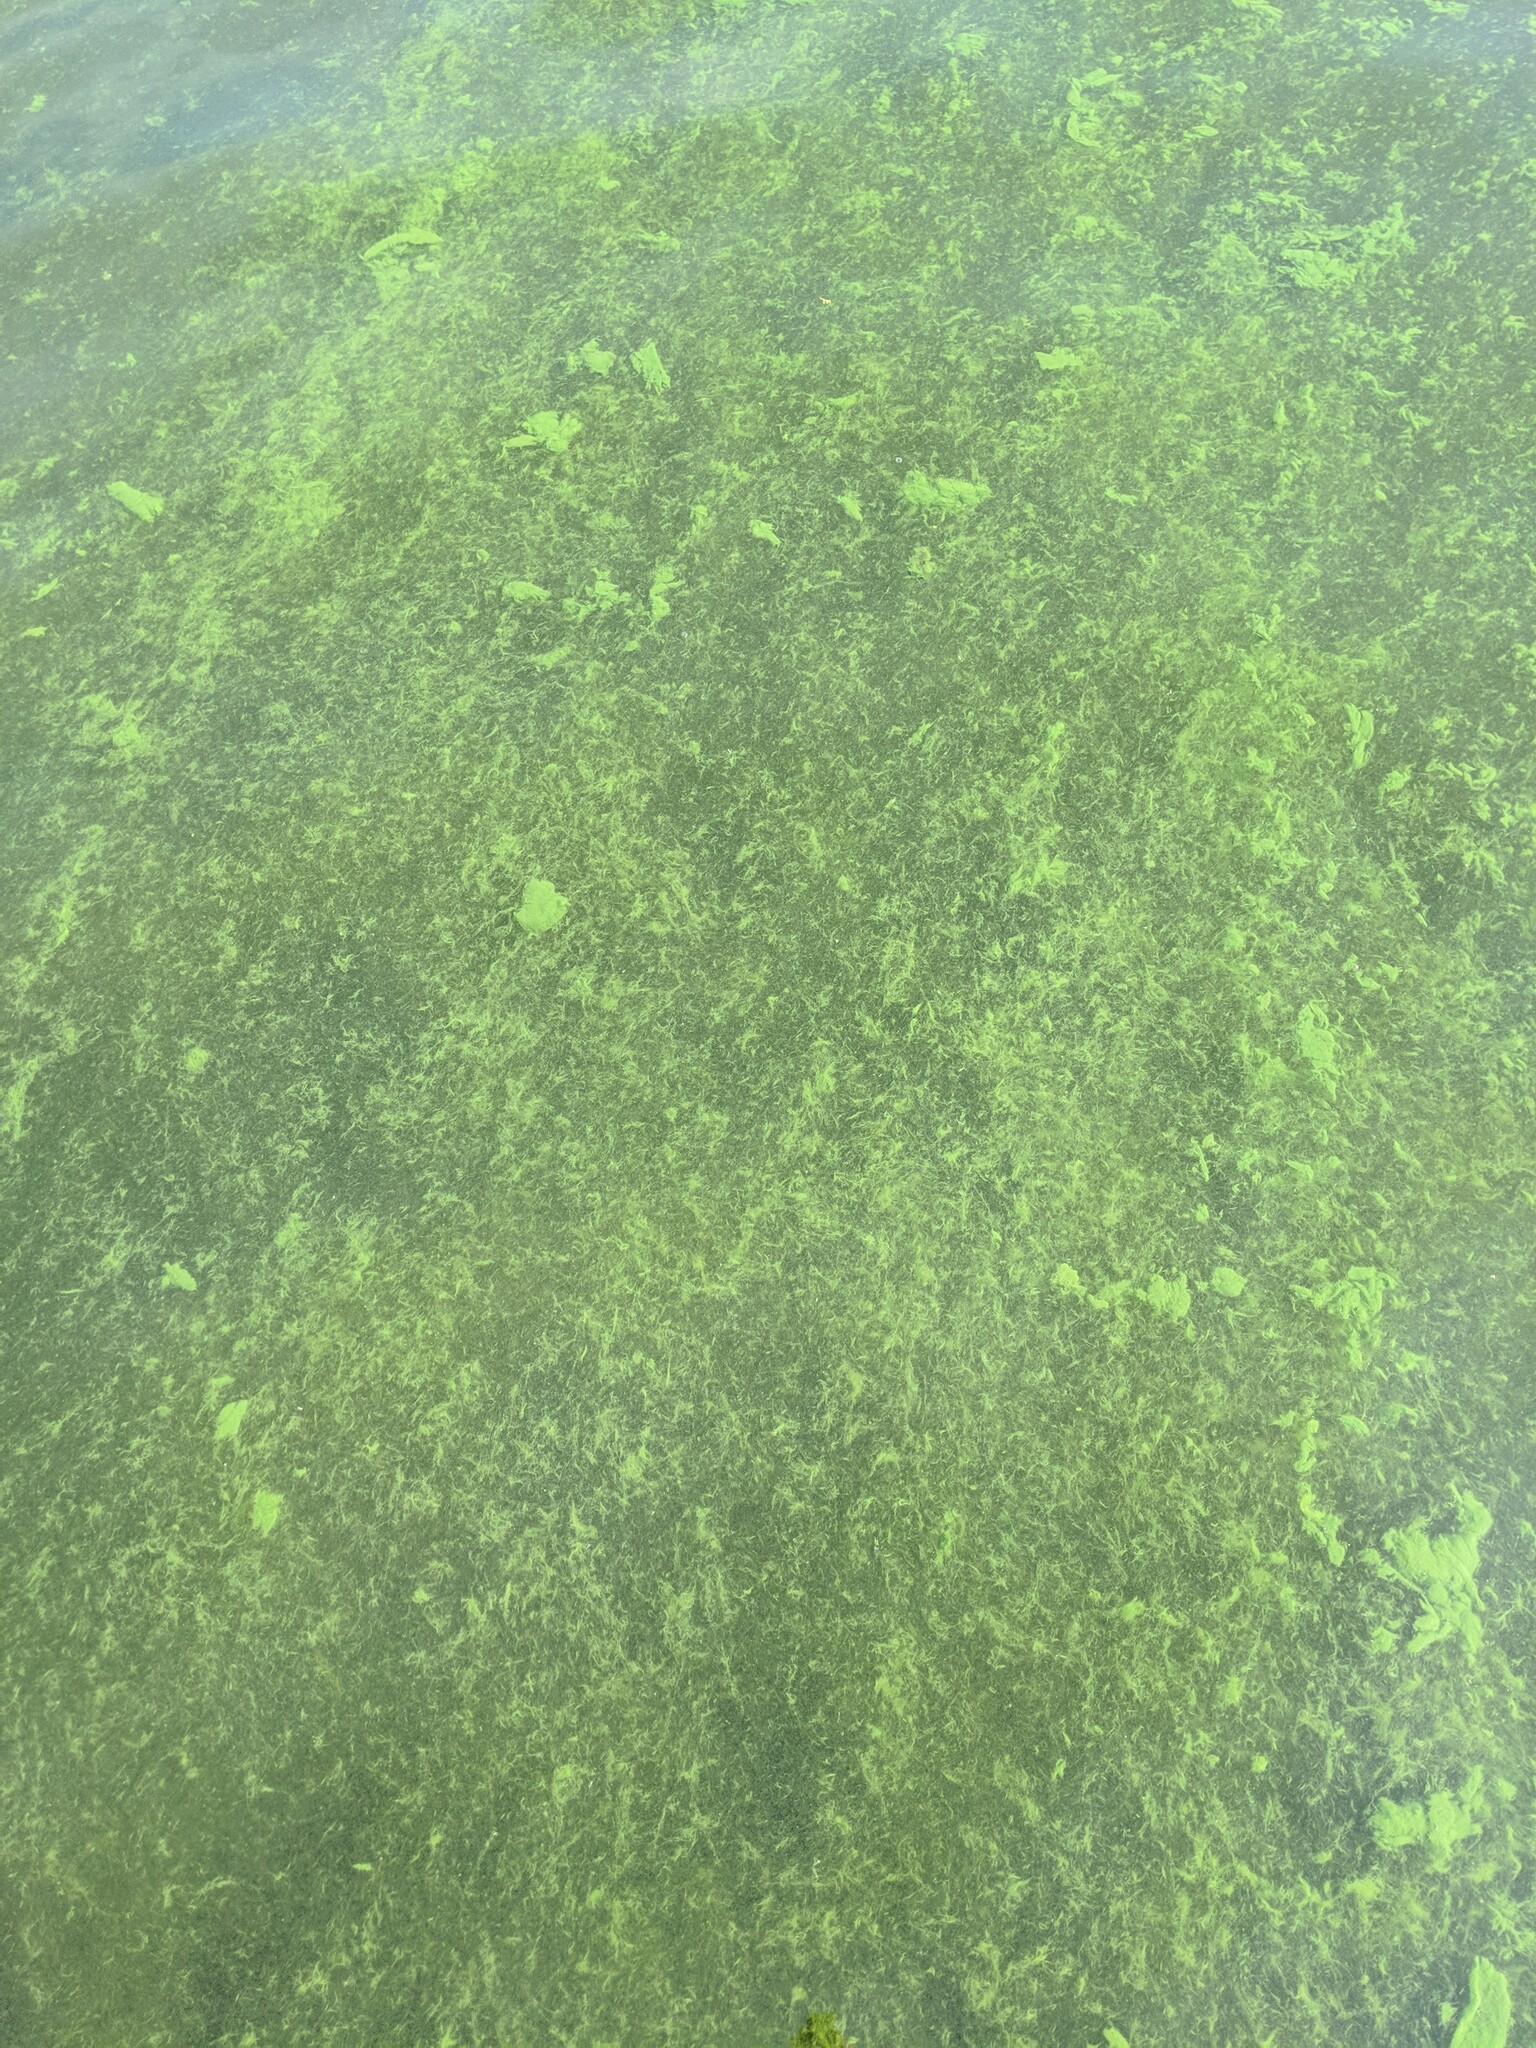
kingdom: Bacteria
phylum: Cyanobacteria
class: Cyanobacteriia
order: Cyanobacteriales
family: Microcystaceae
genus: Microcystis
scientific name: Microcystis aeruginosa
